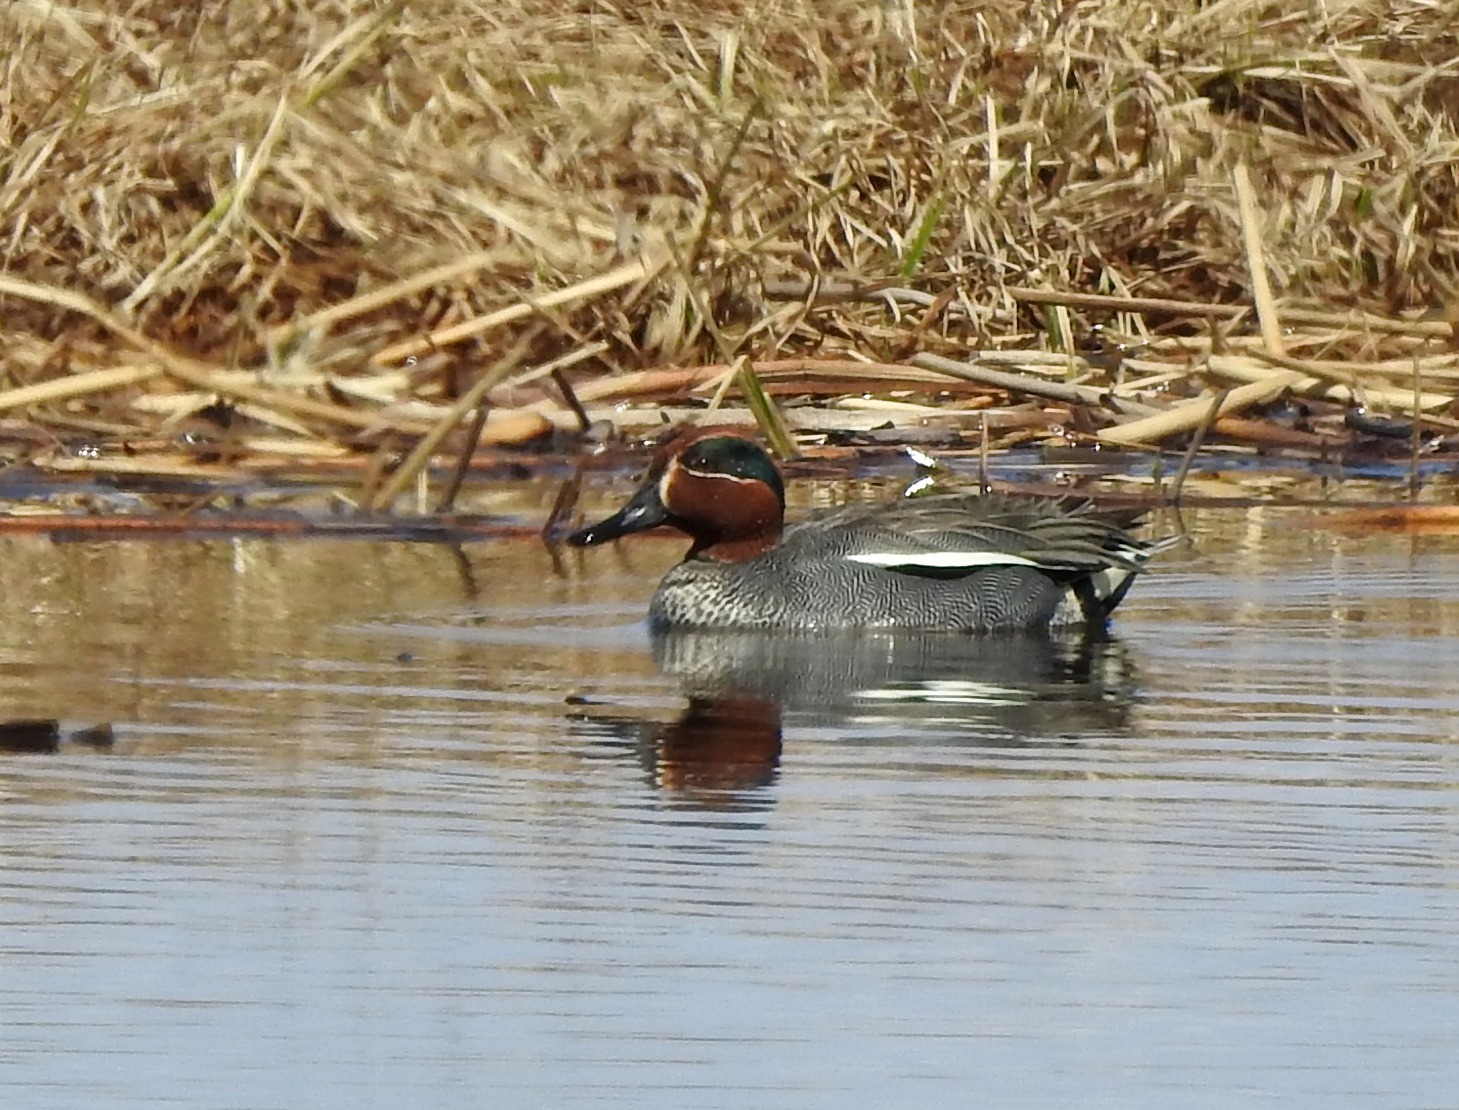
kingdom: Animalia
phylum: Chordata
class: Aves
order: Anseriformes
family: Anatidae
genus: Anas
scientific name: Anas crecca
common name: Eurasian teal
